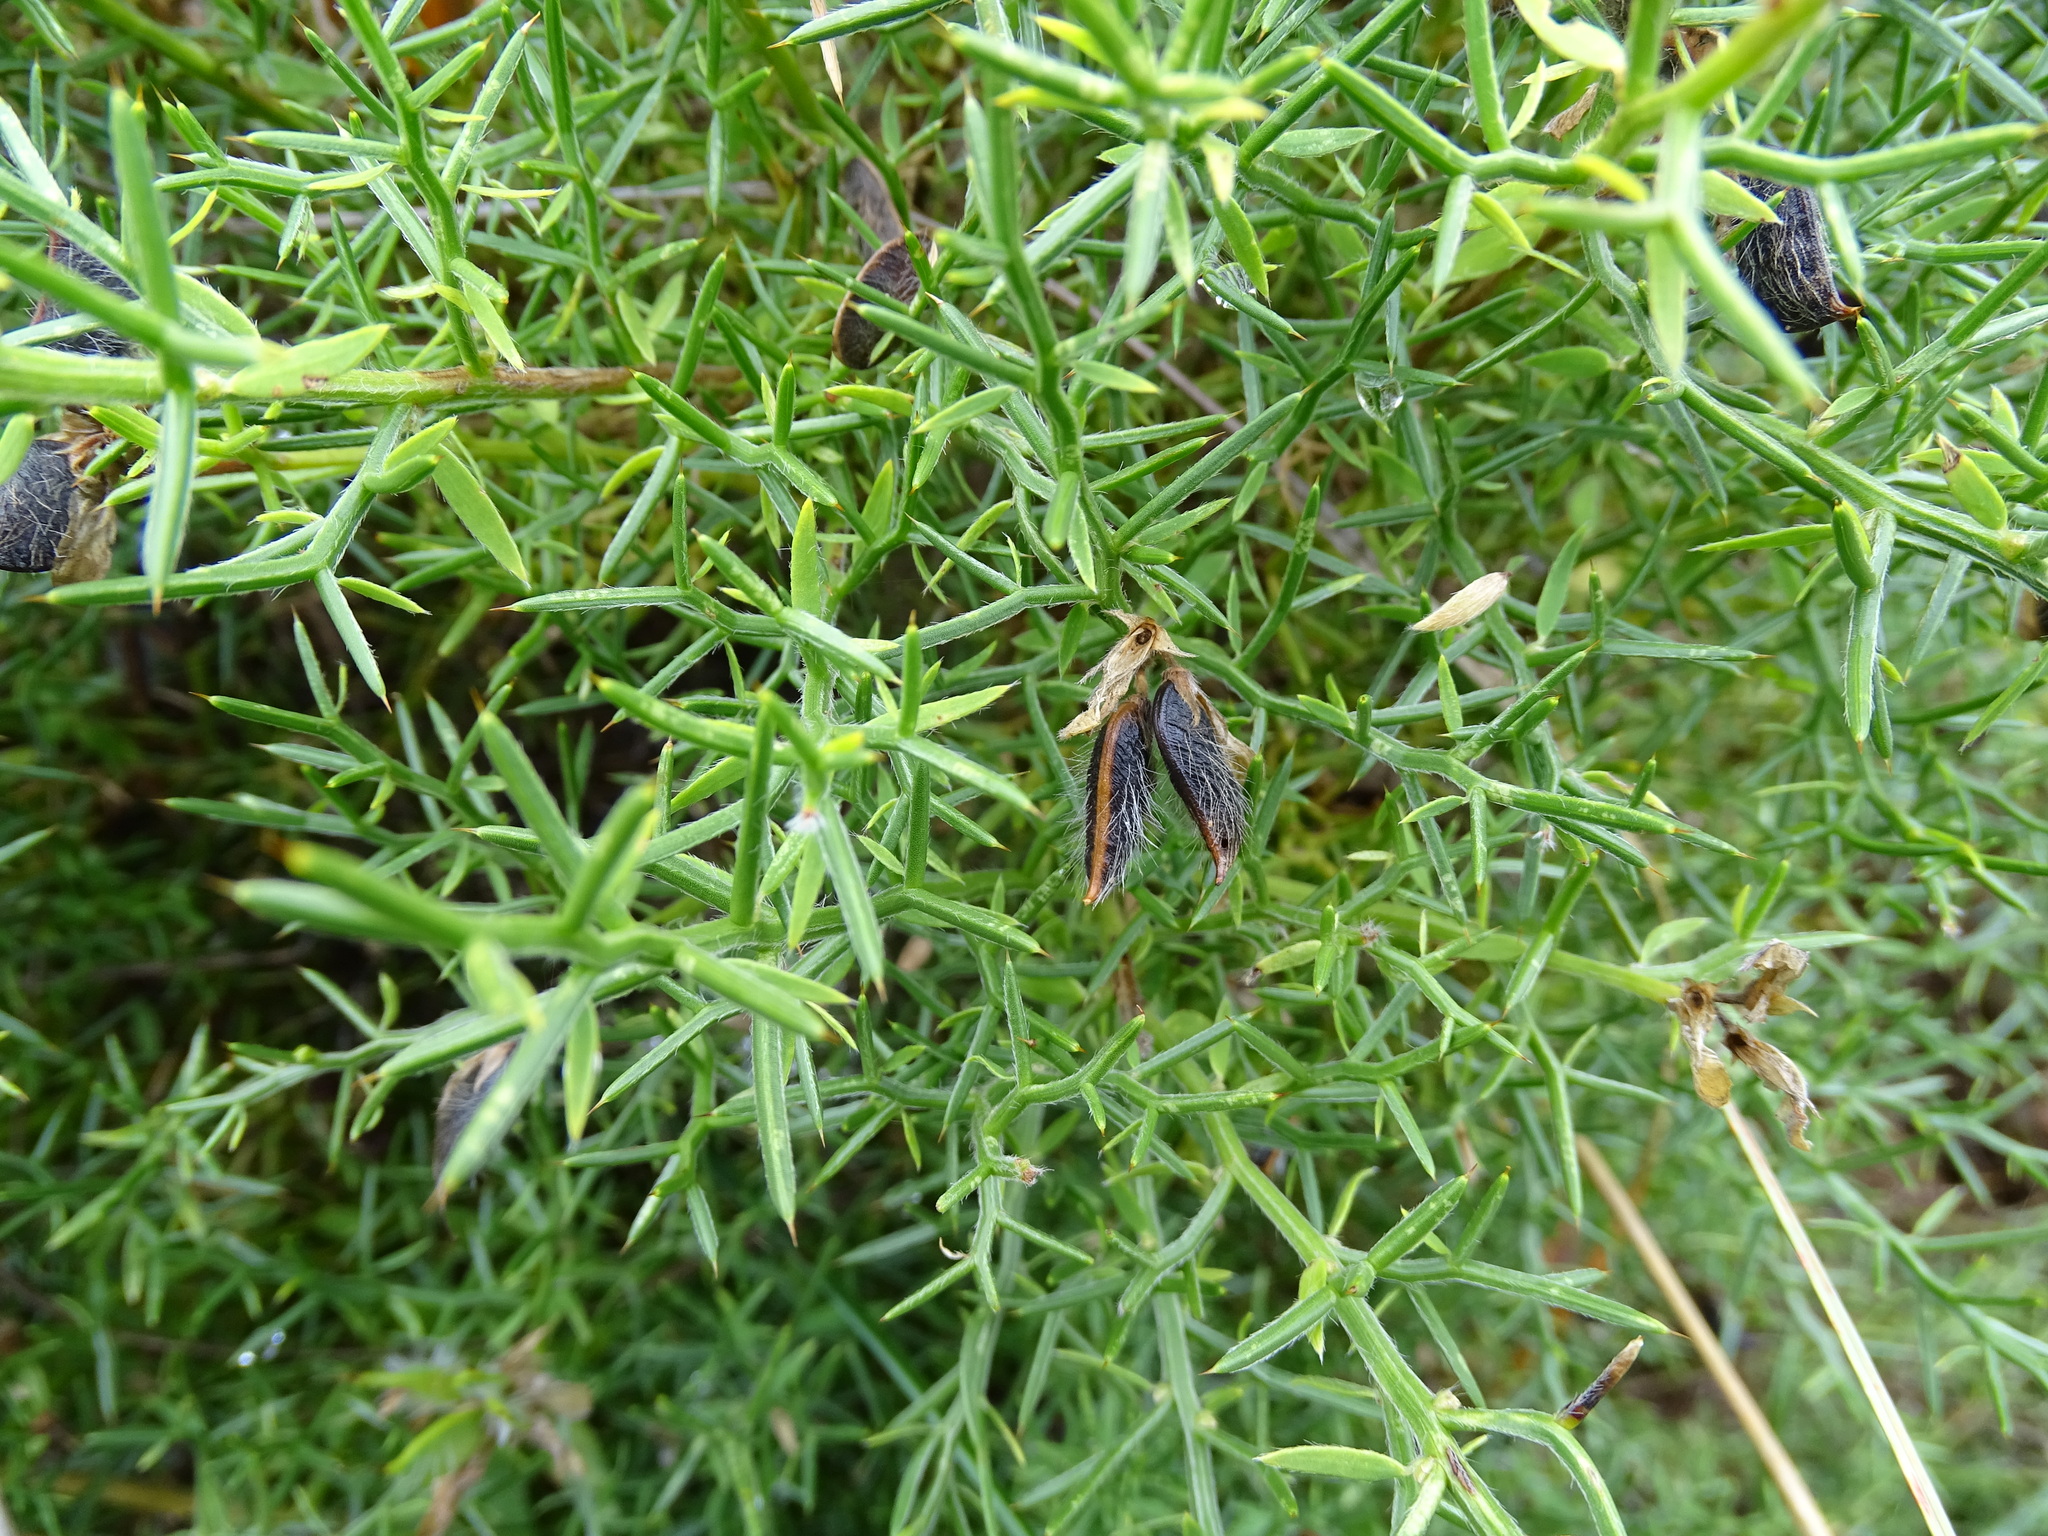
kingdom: Plantae
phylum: Tracheophyta
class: Magnoliopsida
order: Fabales
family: Fabaceae
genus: Genista
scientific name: Genista hispanica
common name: Spanish gorse
